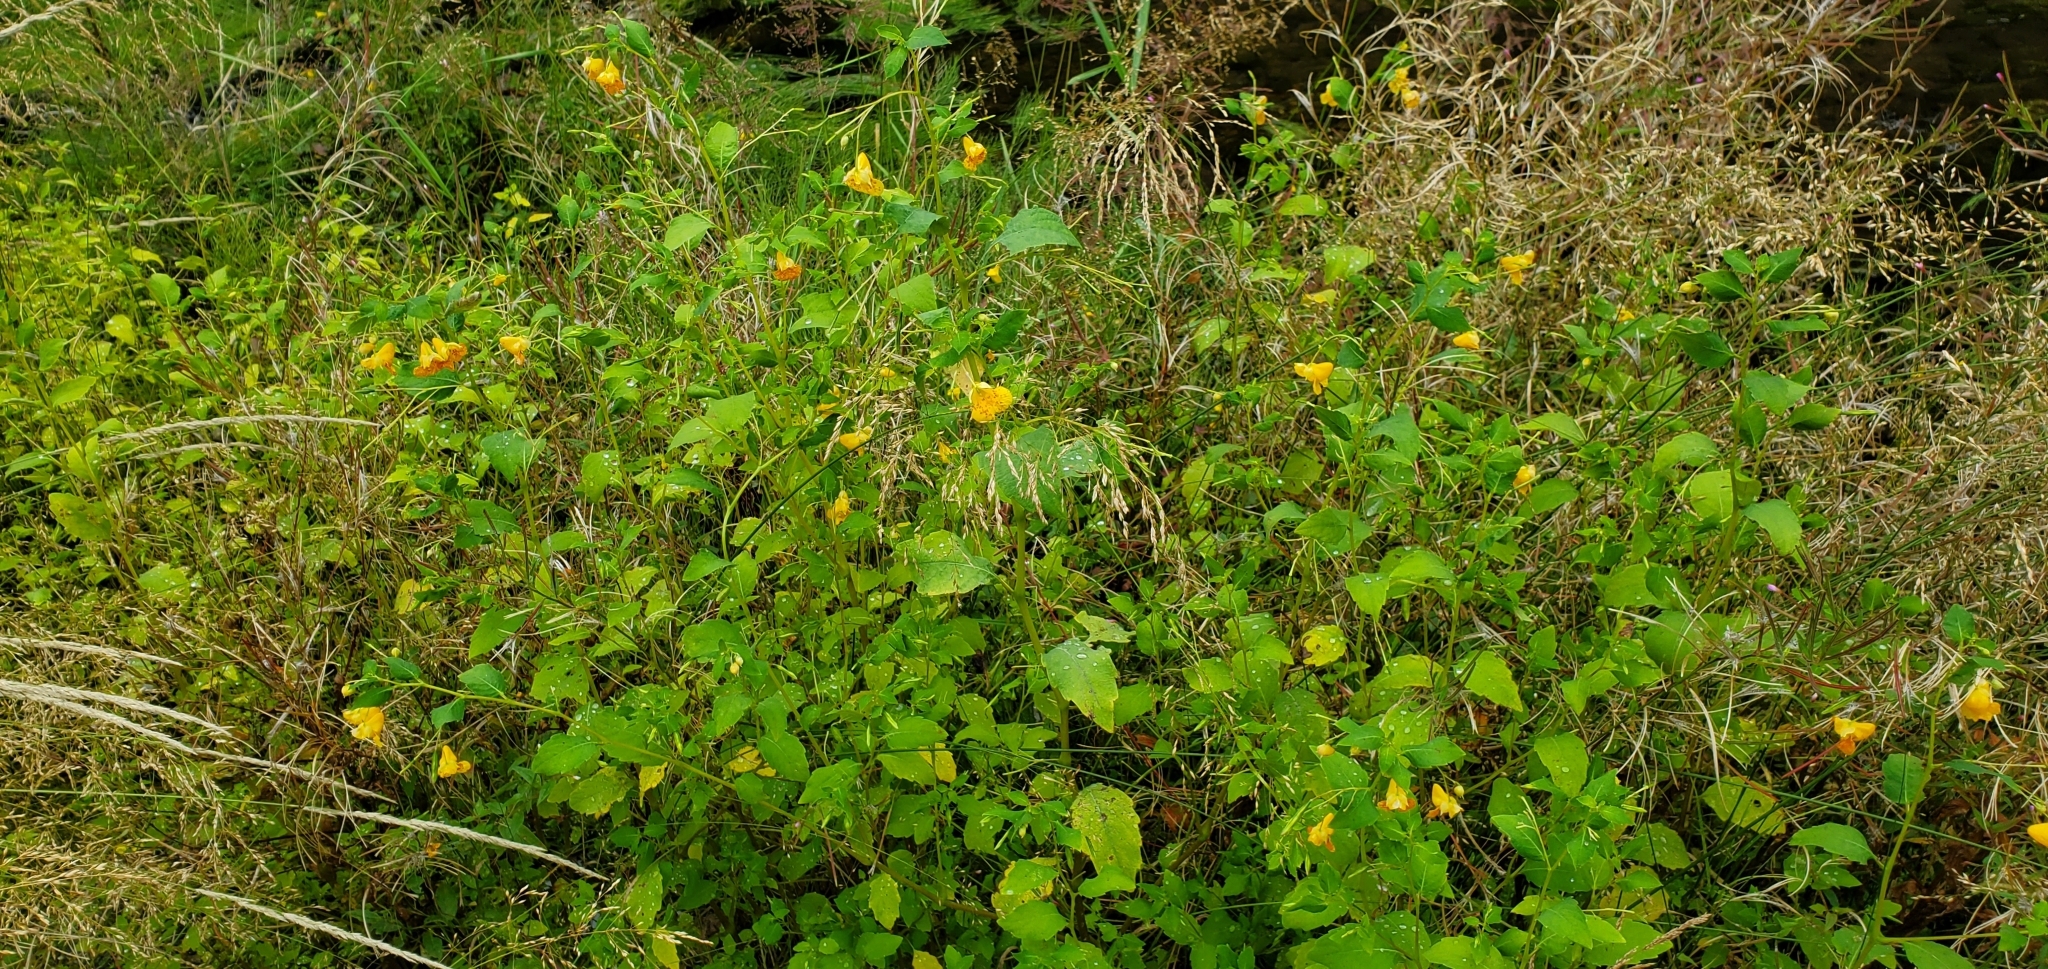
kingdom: Plantae
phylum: Tracheophyta
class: Magnoliopsida
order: Ericales
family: Balsaminaceae
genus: Impatiens
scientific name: Impatiens capensis
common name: Orange balsam
